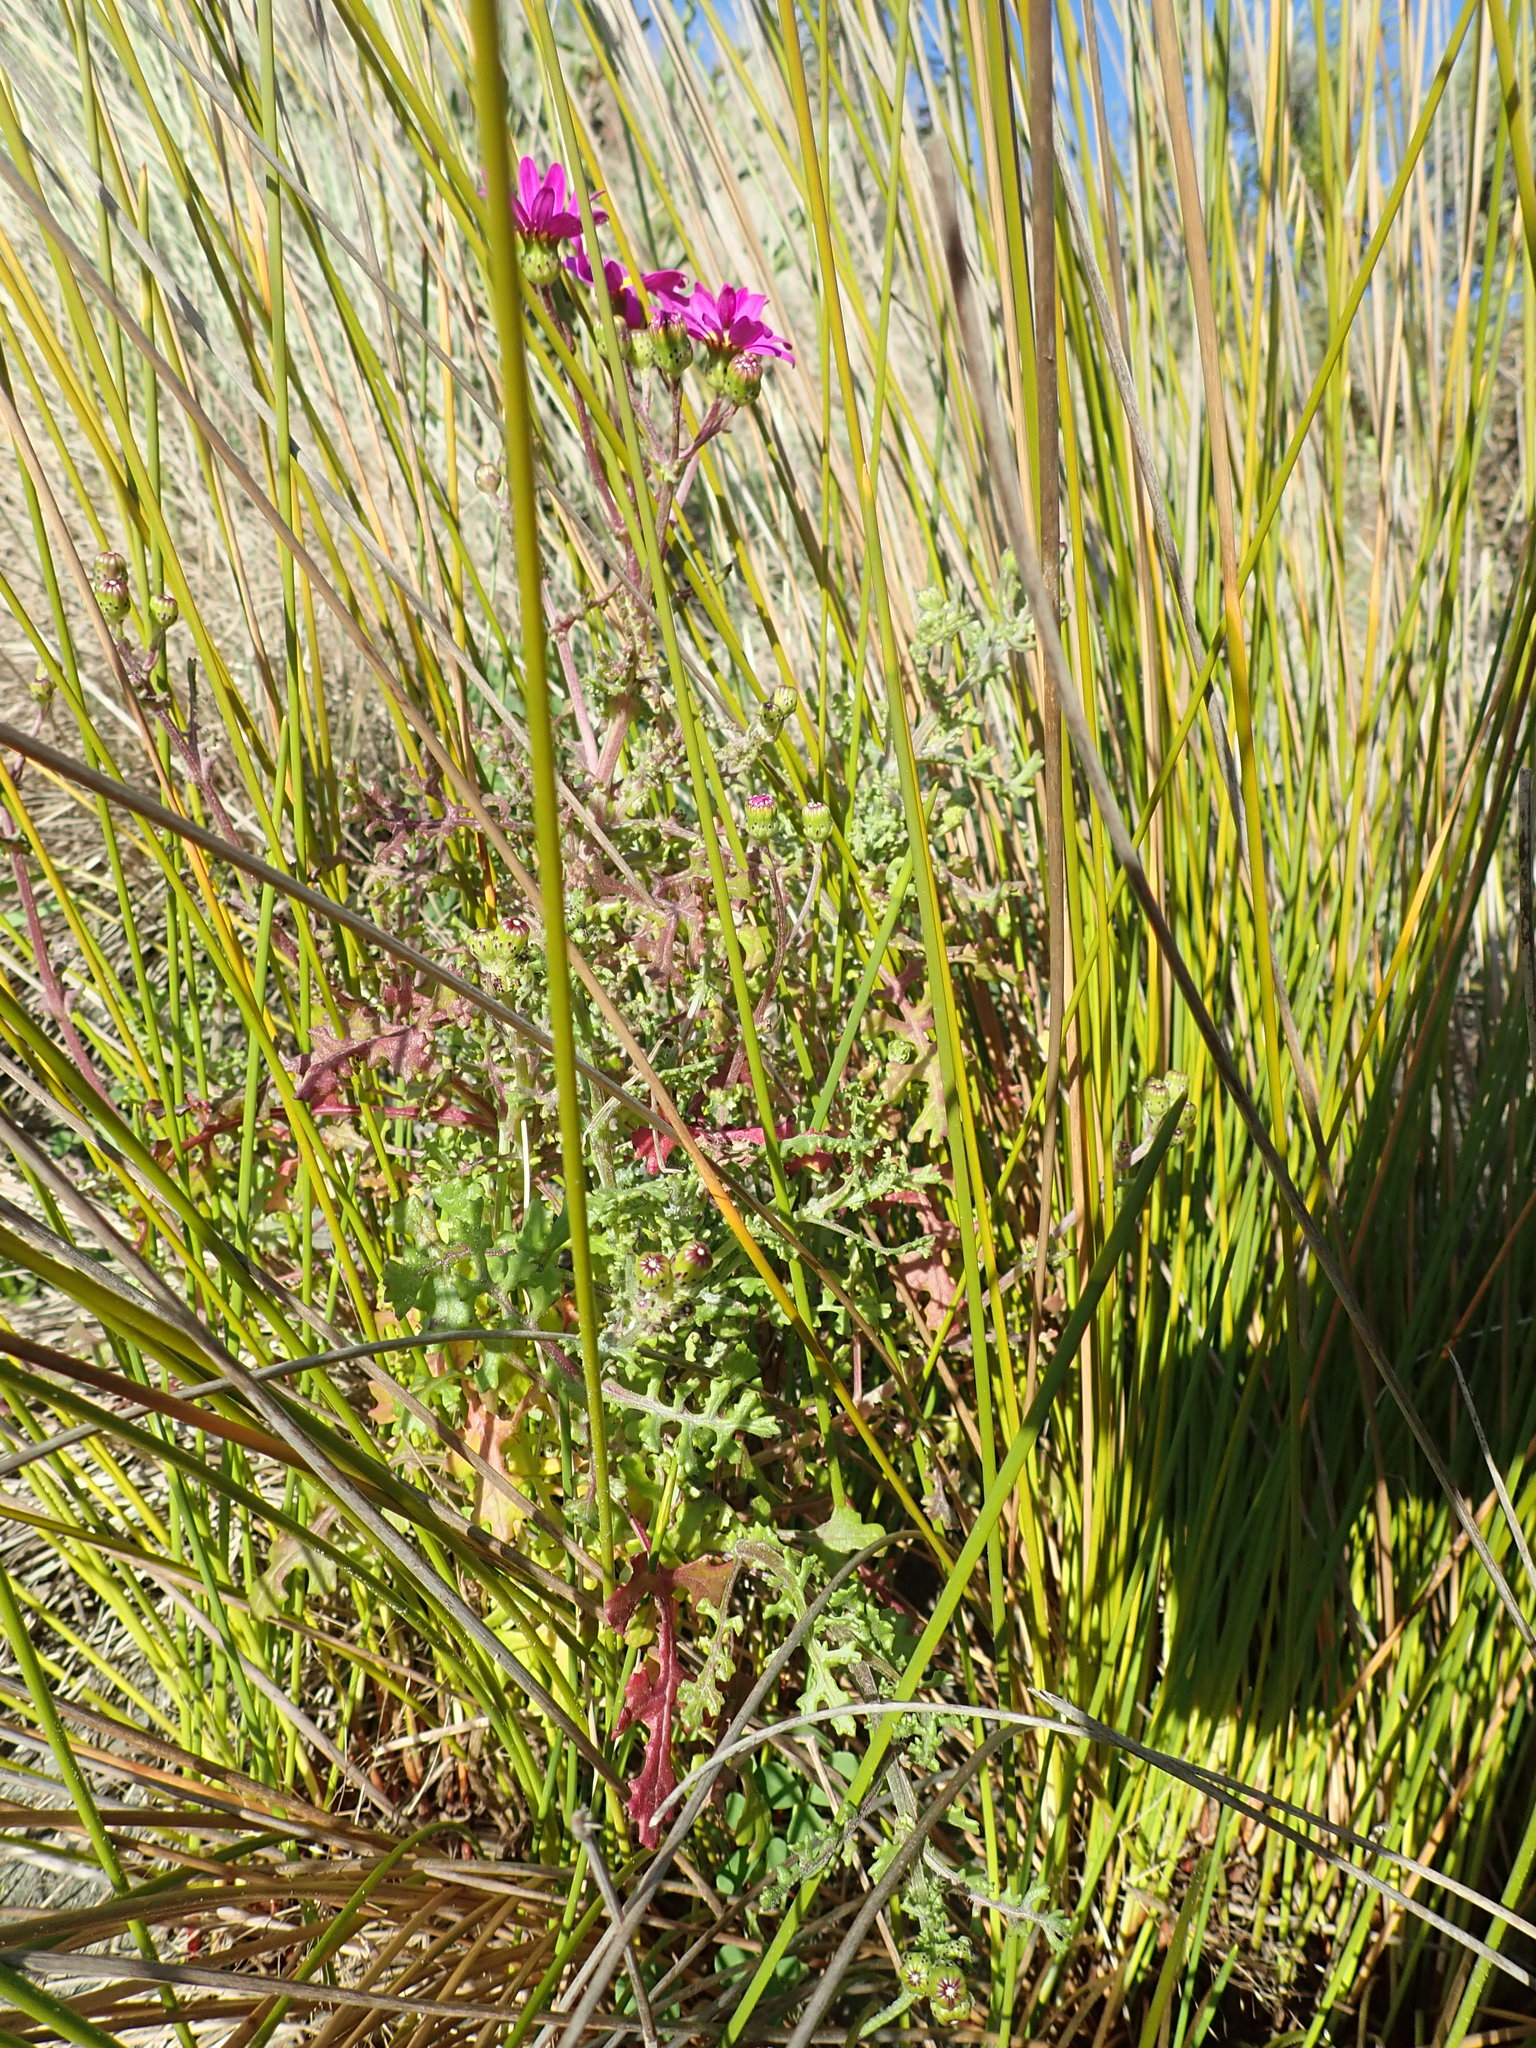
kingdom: Plantae
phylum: Tracheophyta
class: Magnoliopsida
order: Asterales
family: Asteraceae
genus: Senecio
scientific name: Senecio elegans
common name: Purple groundsel
